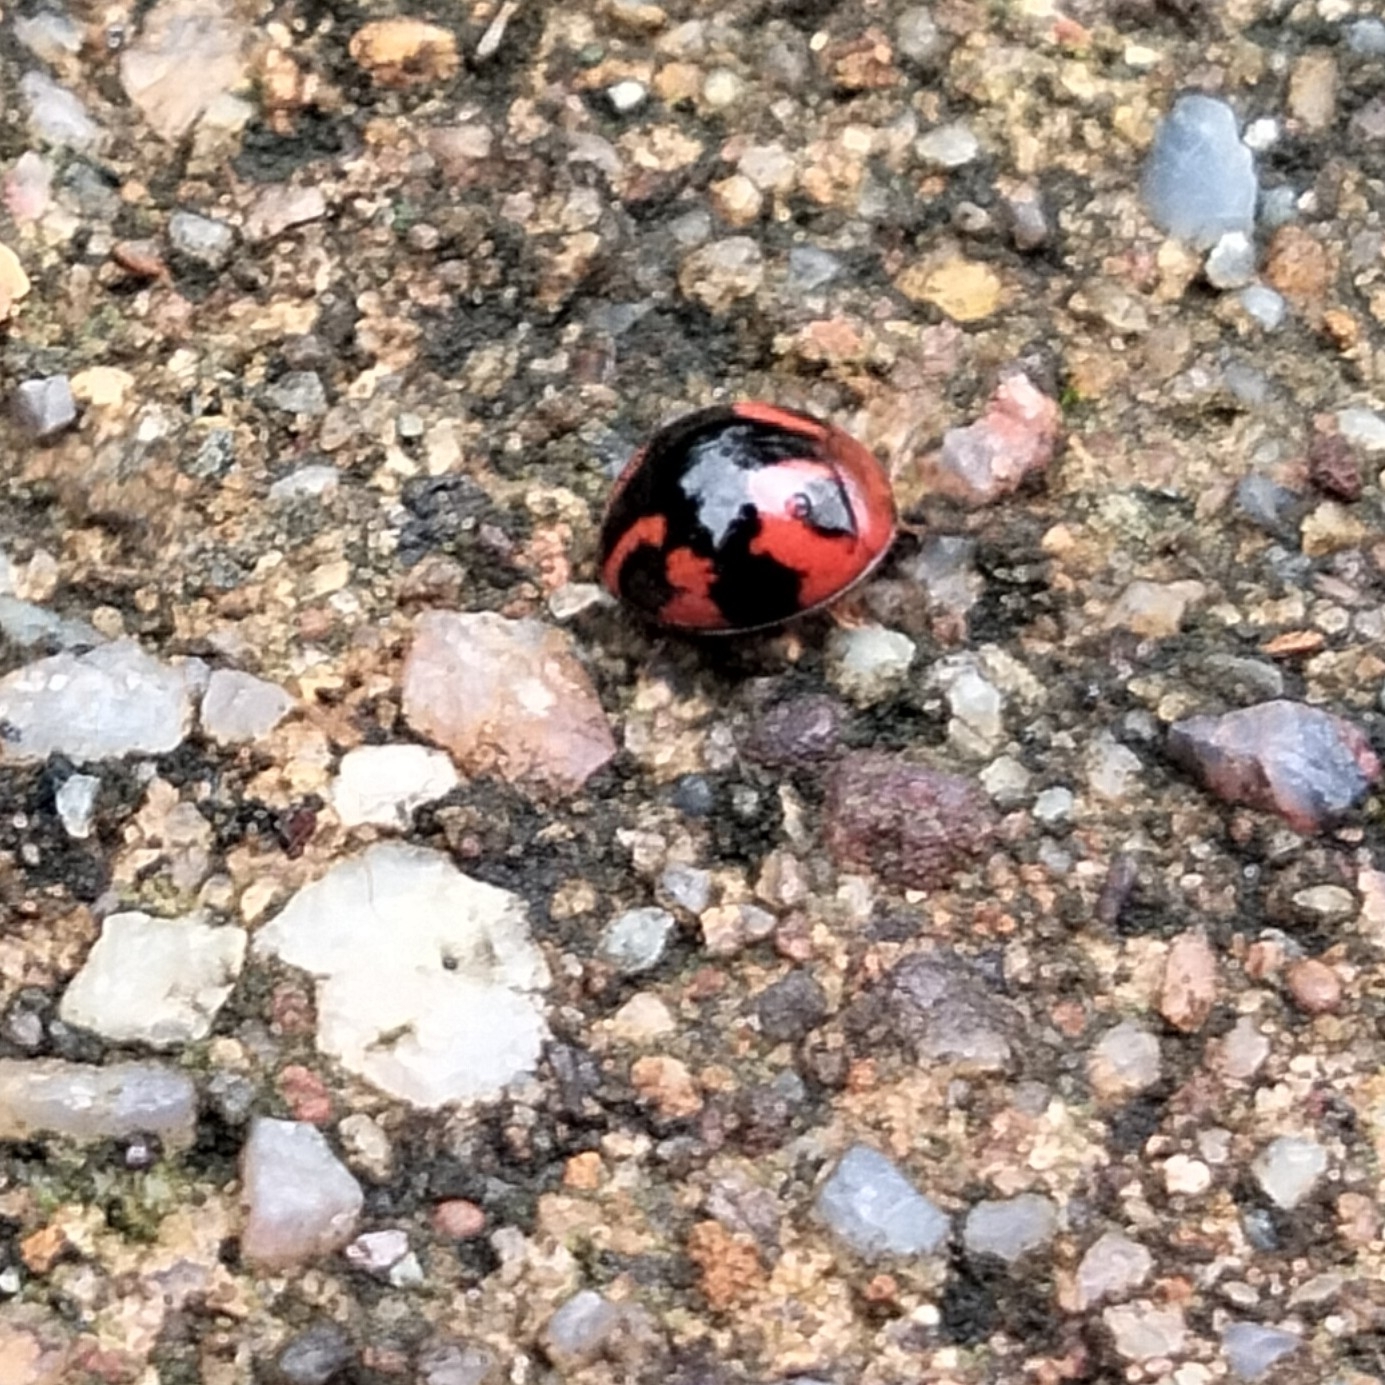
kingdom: Animalia
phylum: Arthropoda
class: Insecta
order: Coleoptera
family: Coccinellidae
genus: Cheilomenes
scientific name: Cheilomenes sexmaculata
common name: Ladybird beetle
